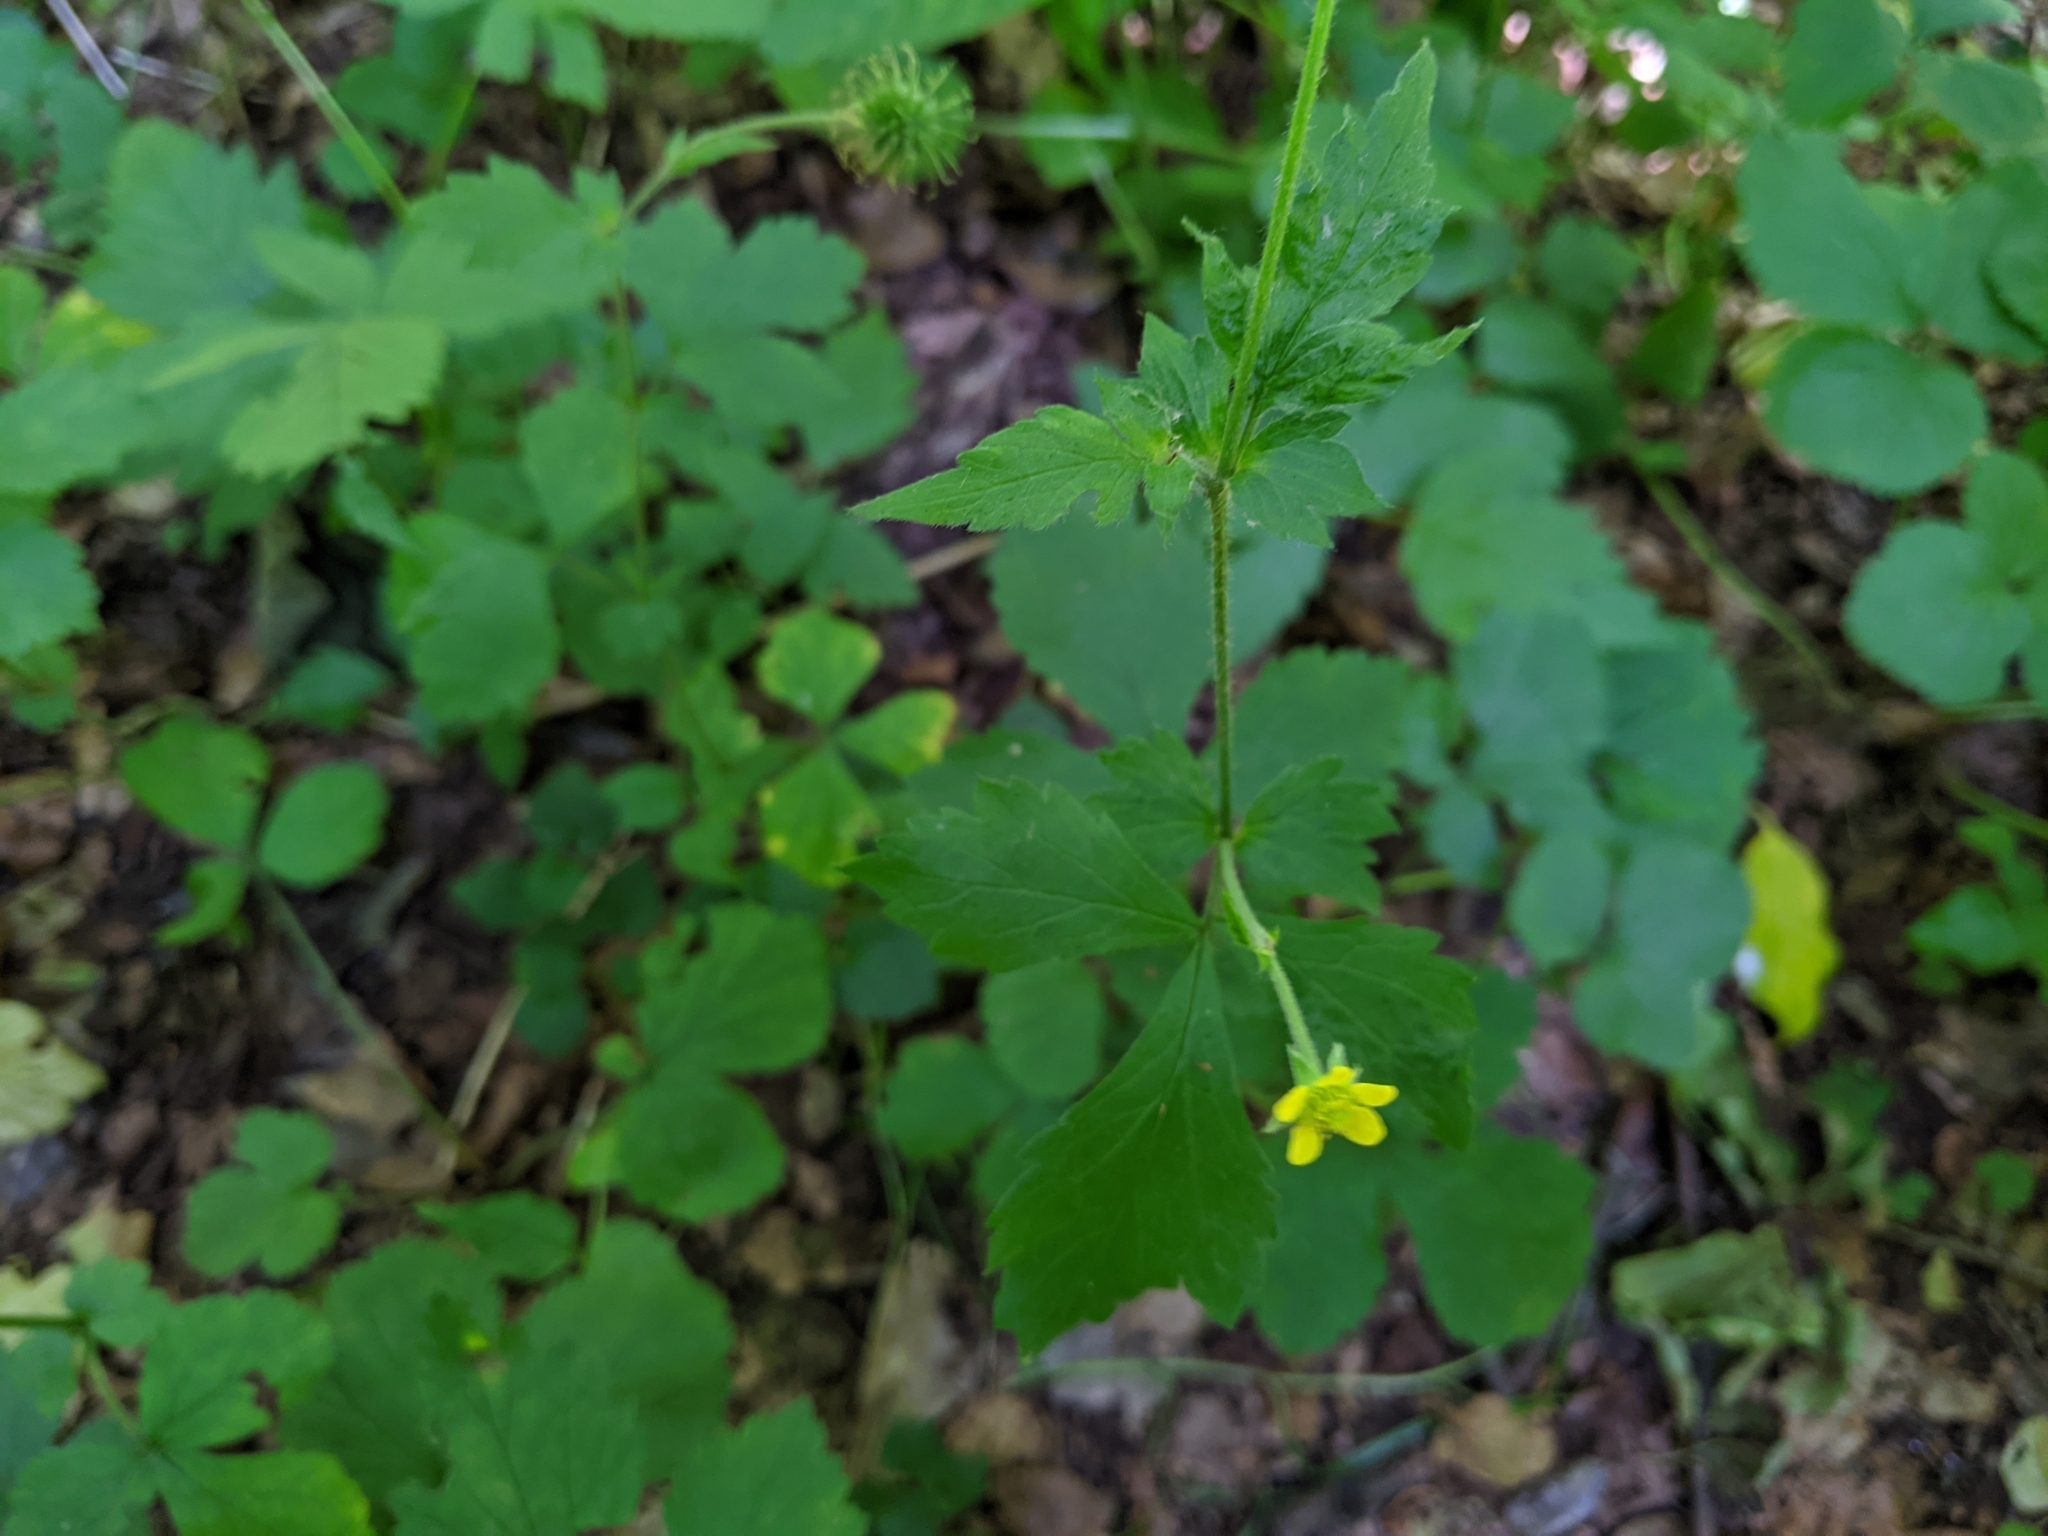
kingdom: Plantae
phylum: Tracheophyta
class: Magnoliopsida
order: Rosales
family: Rosaceae
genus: Geum
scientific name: Geum urbanum
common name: Wood avens
